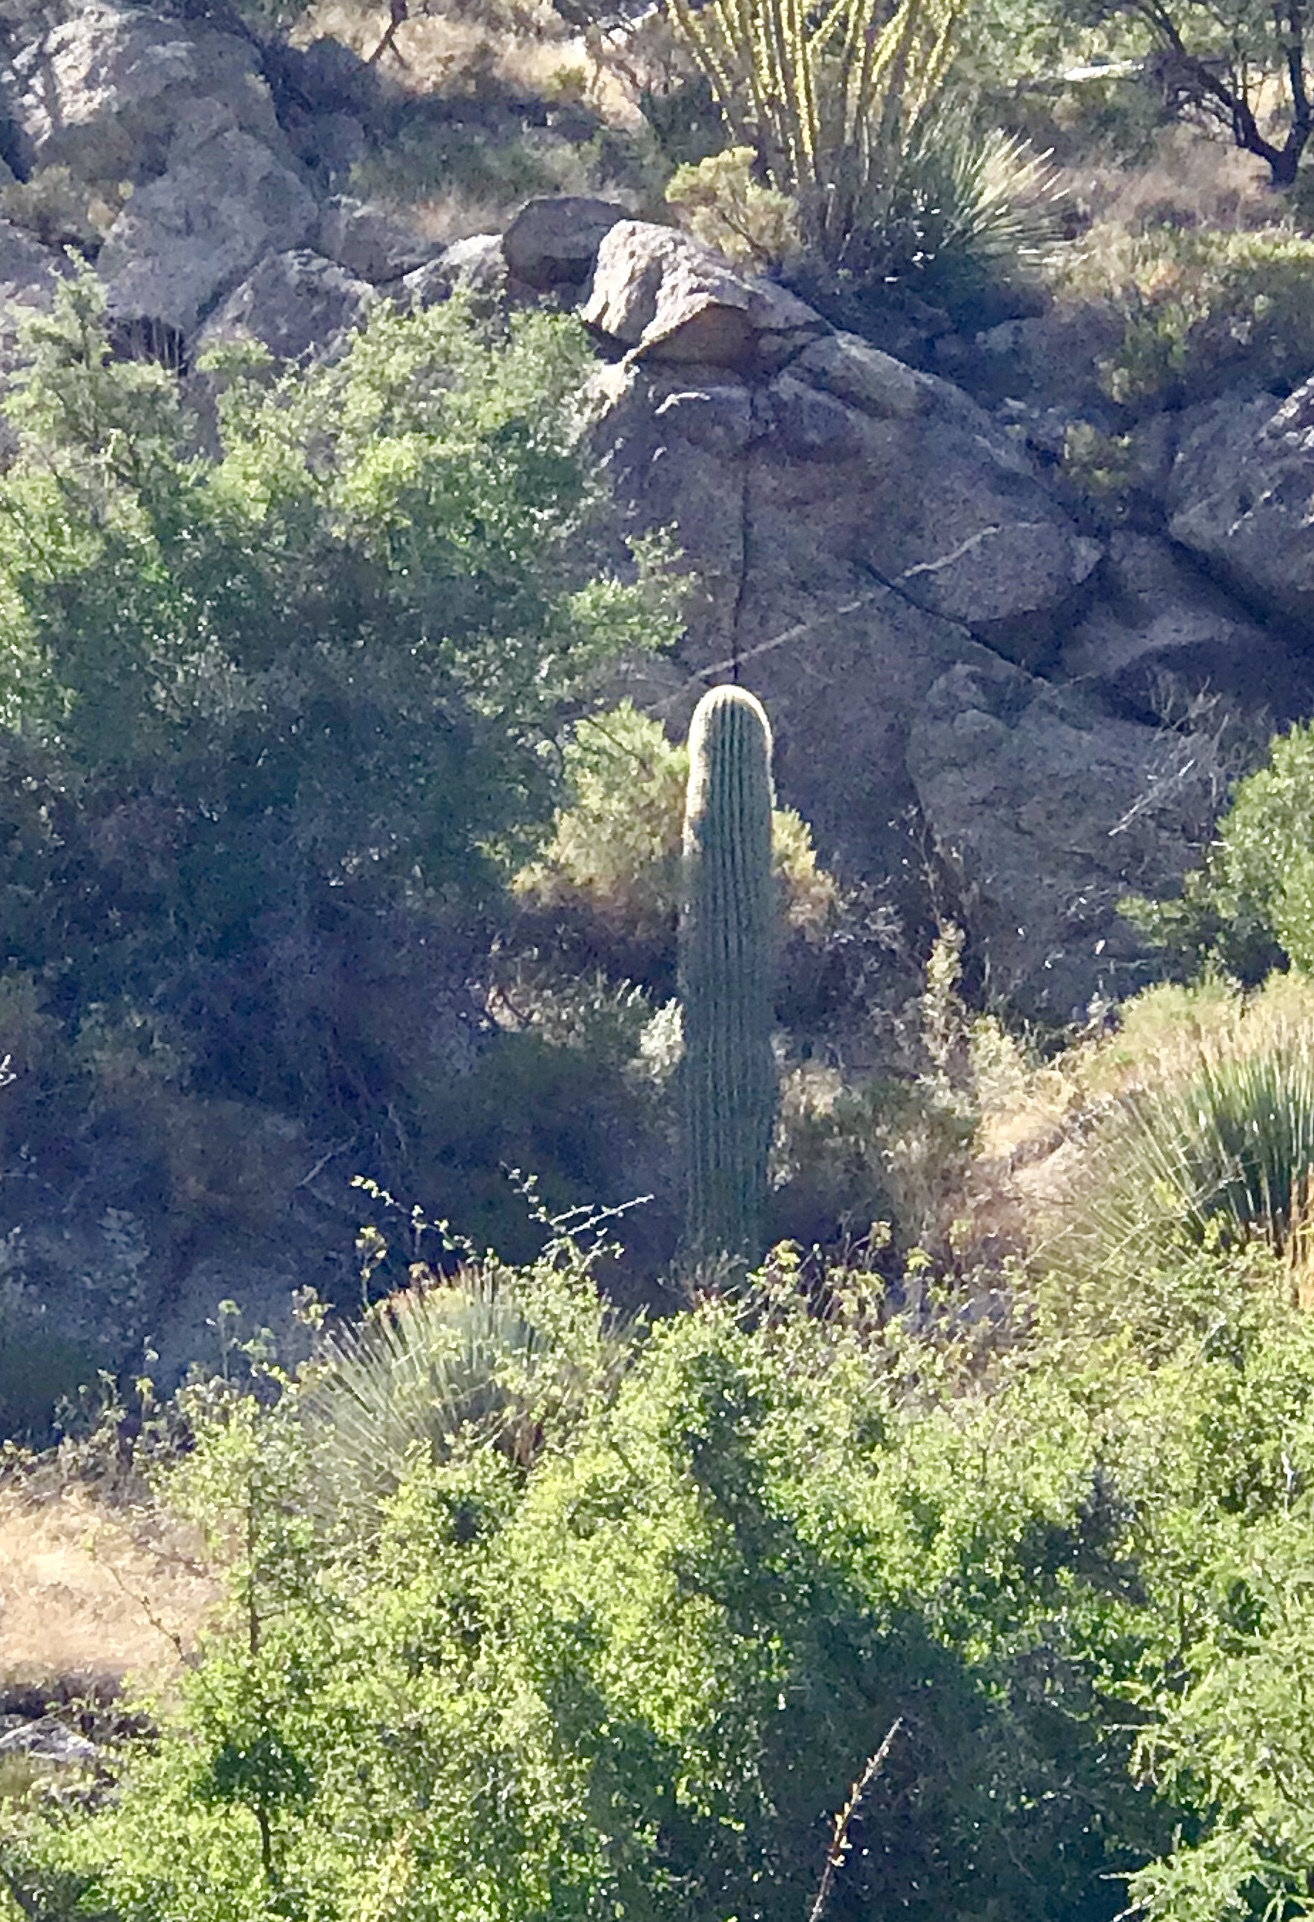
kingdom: Plantae
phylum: Tracheophyta
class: Magnoliopsida
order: Caryophyllales
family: Cactaceae
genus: Carnegiea
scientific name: Carnegiea gigantea
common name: Saguaro
